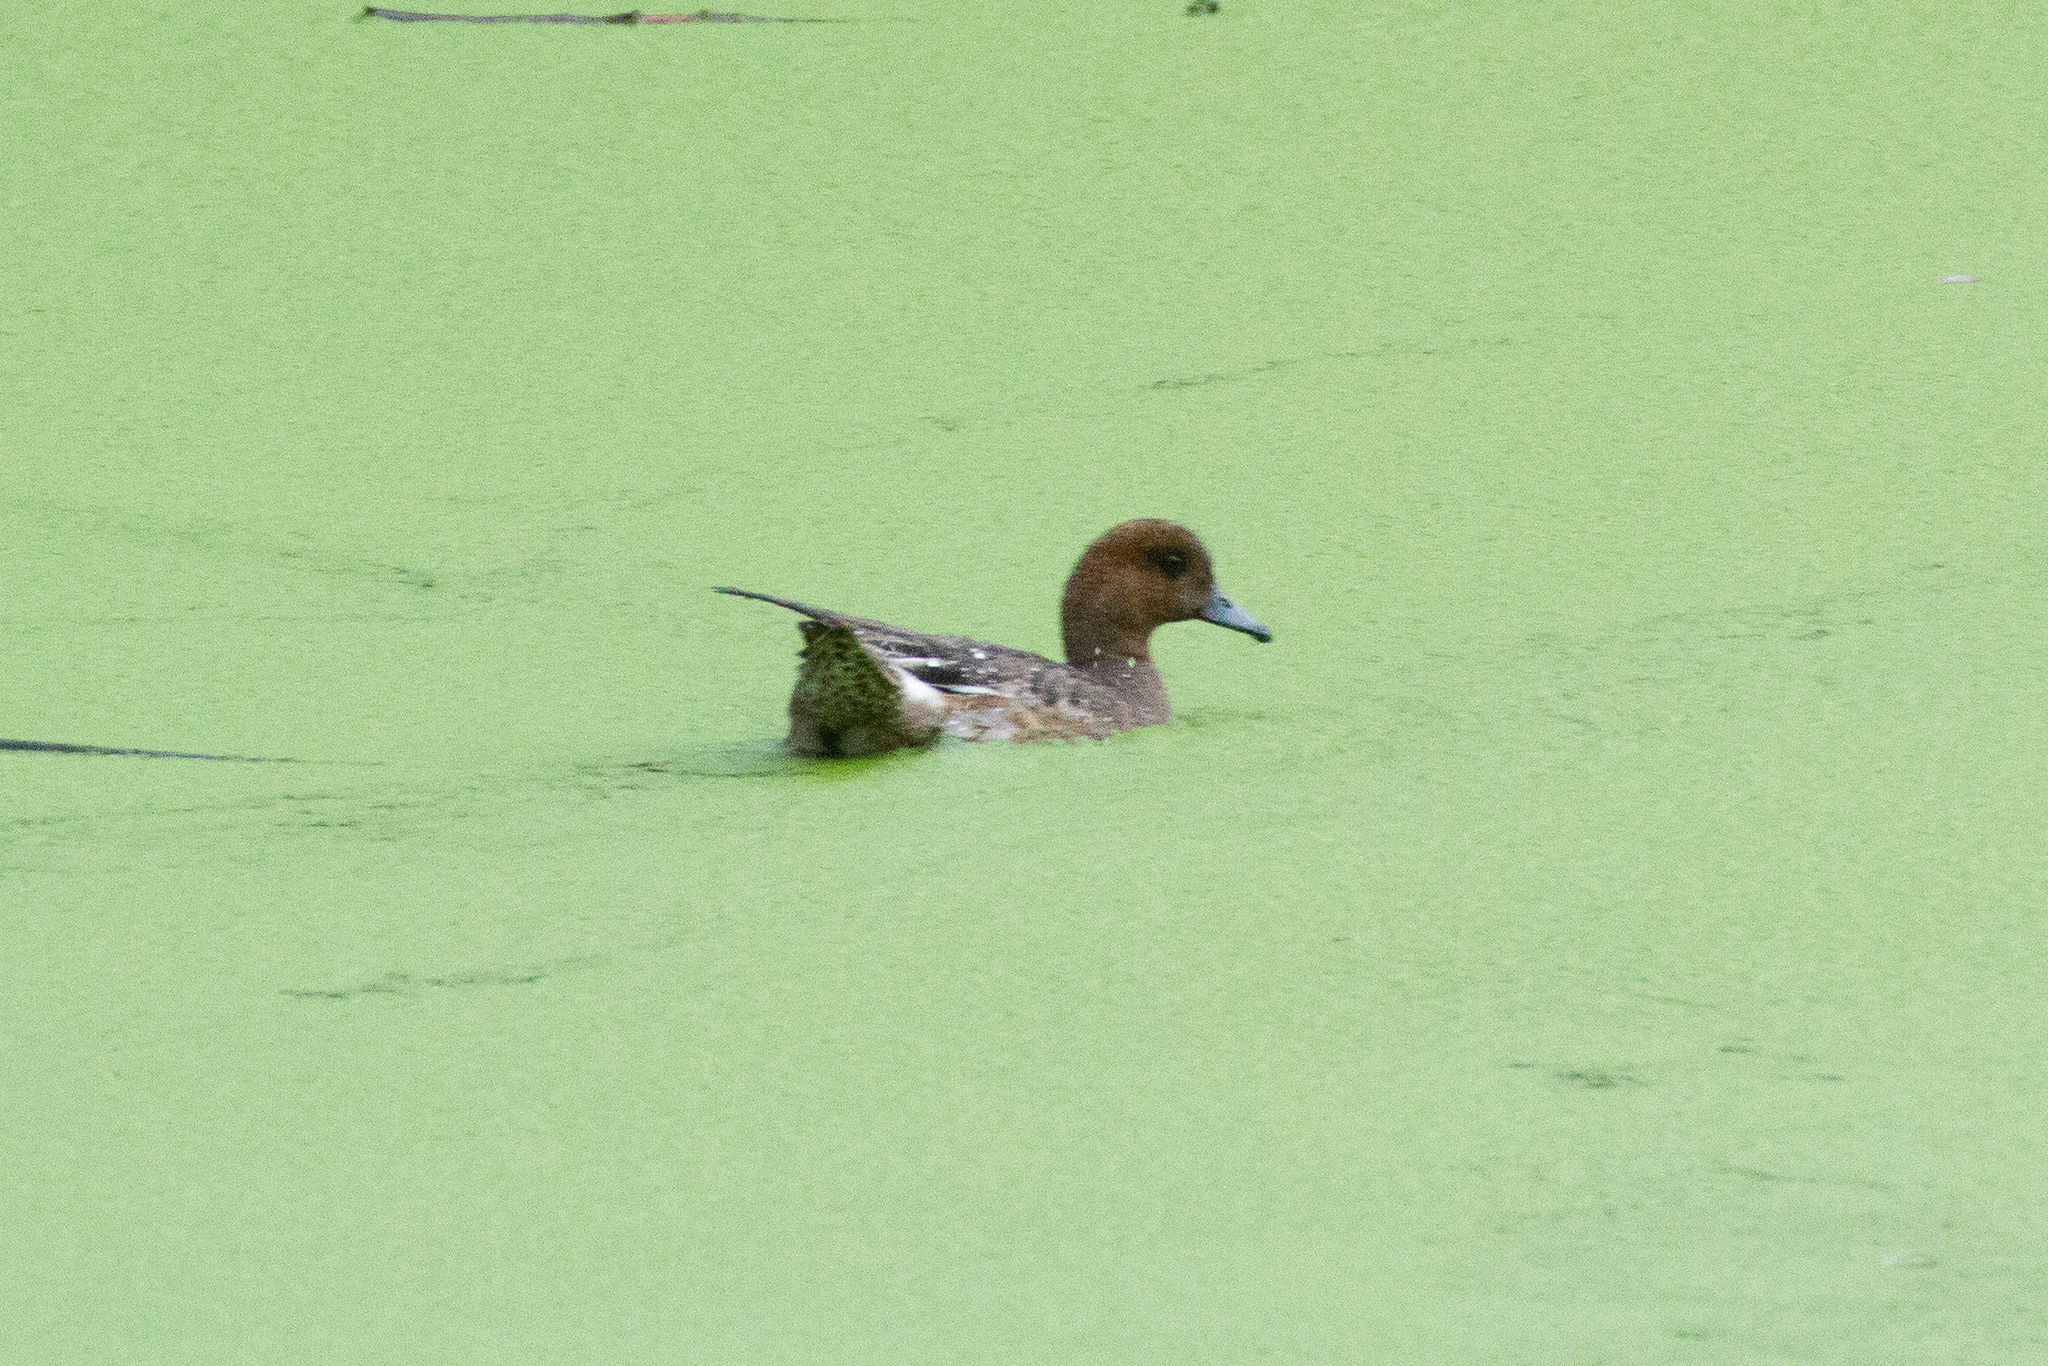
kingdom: Animalia
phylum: Chordata
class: Aves
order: Anseriformes
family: Anatidae
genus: Mareca
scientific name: Mareca penelope
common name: Eurasian wigeon
